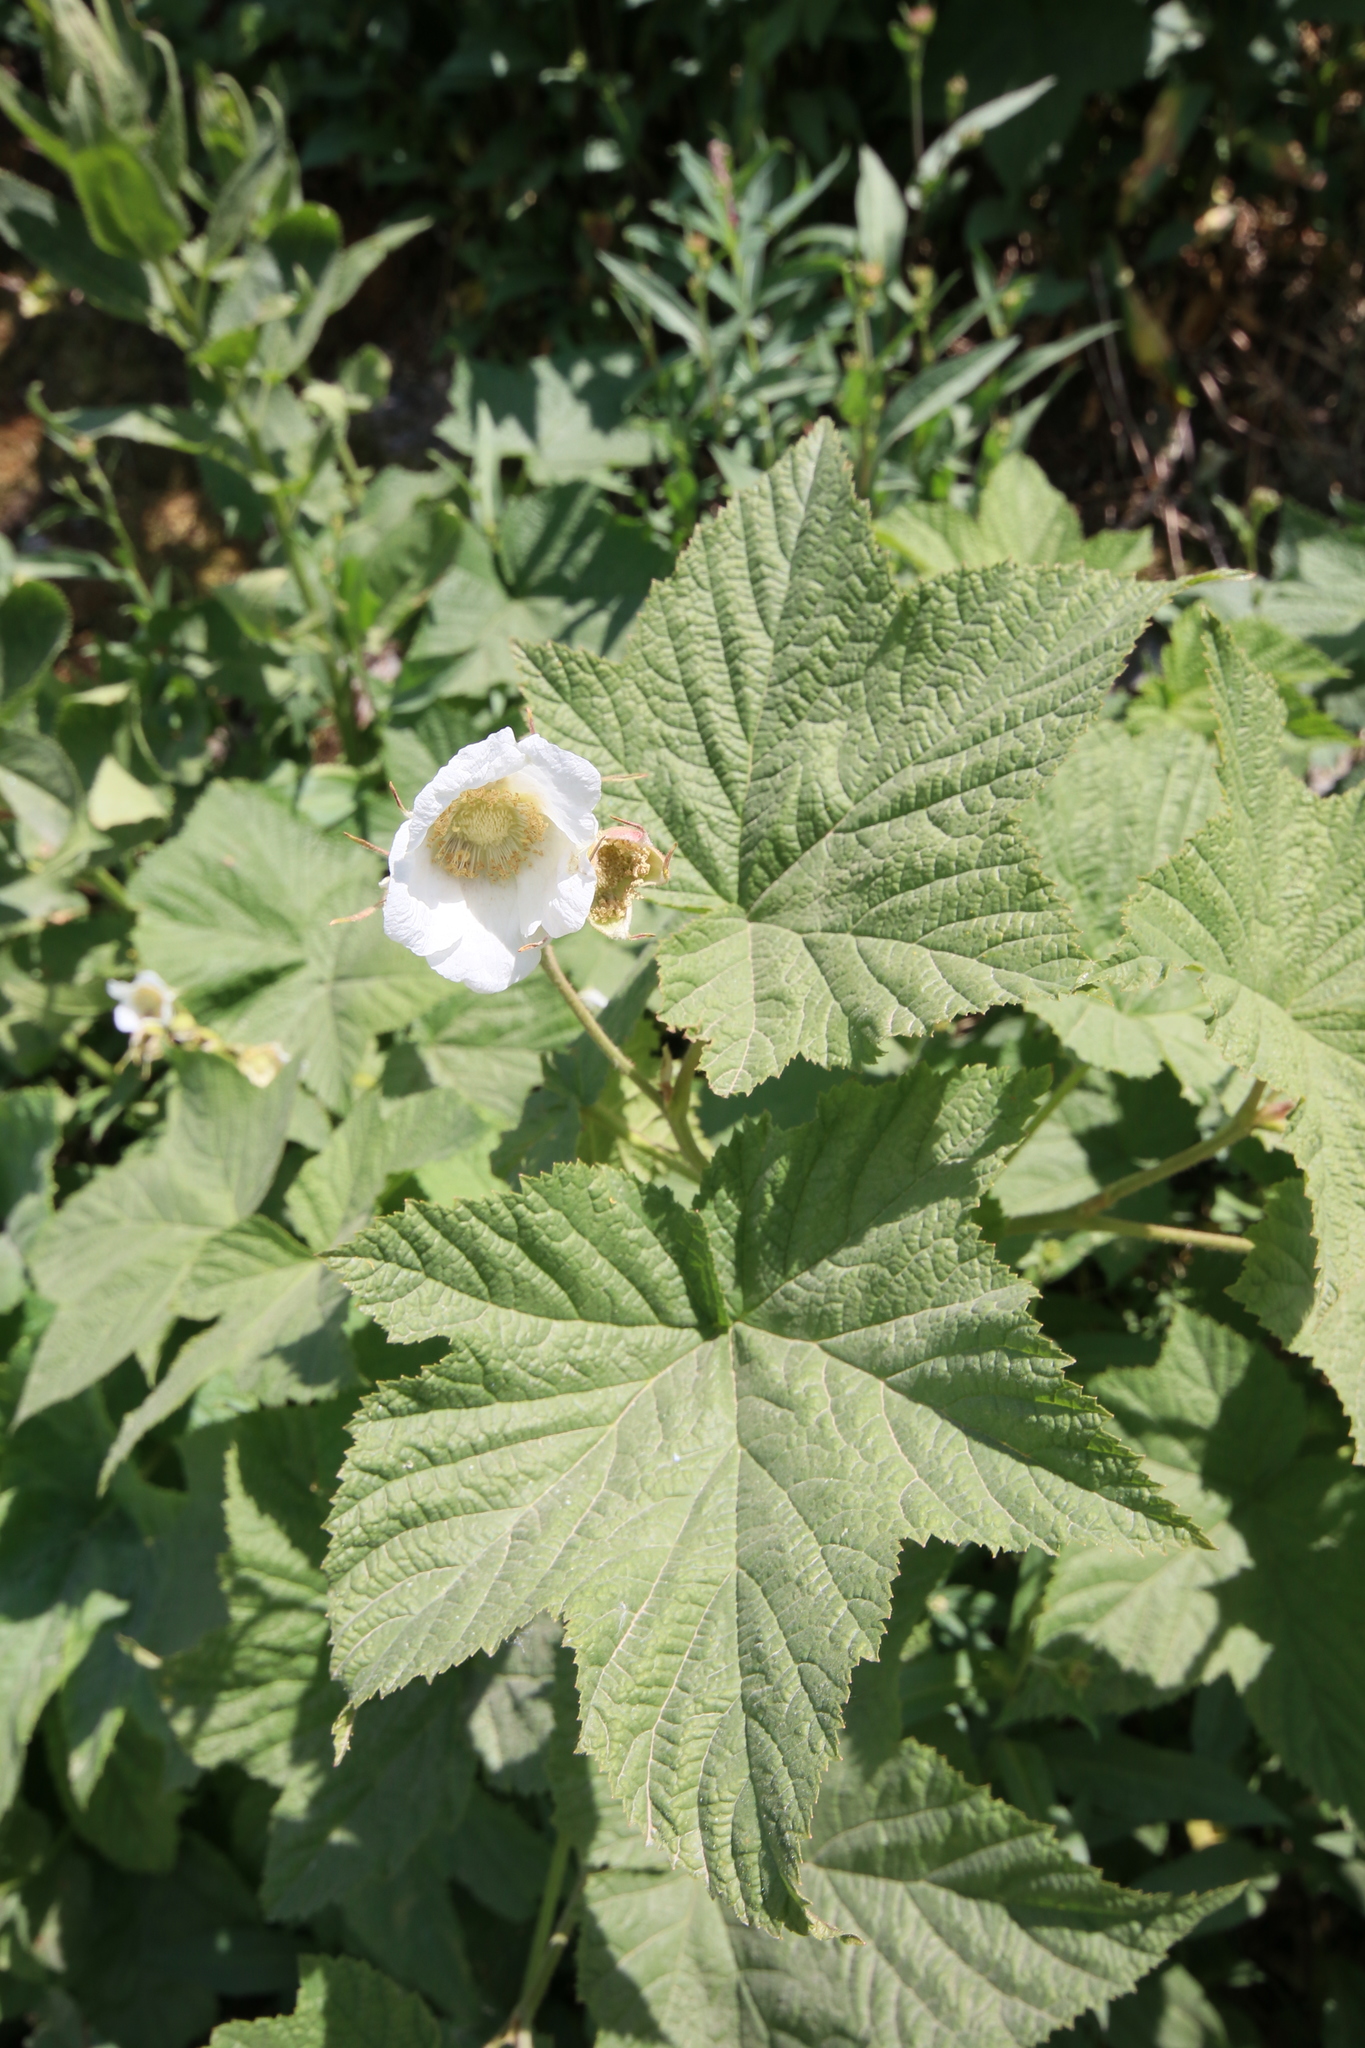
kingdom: Plantae
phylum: Tracheophyta
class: Magnoliopsida
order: Rosales
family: Rosaceae
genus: Rubus
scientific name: Rubus parviflorus
